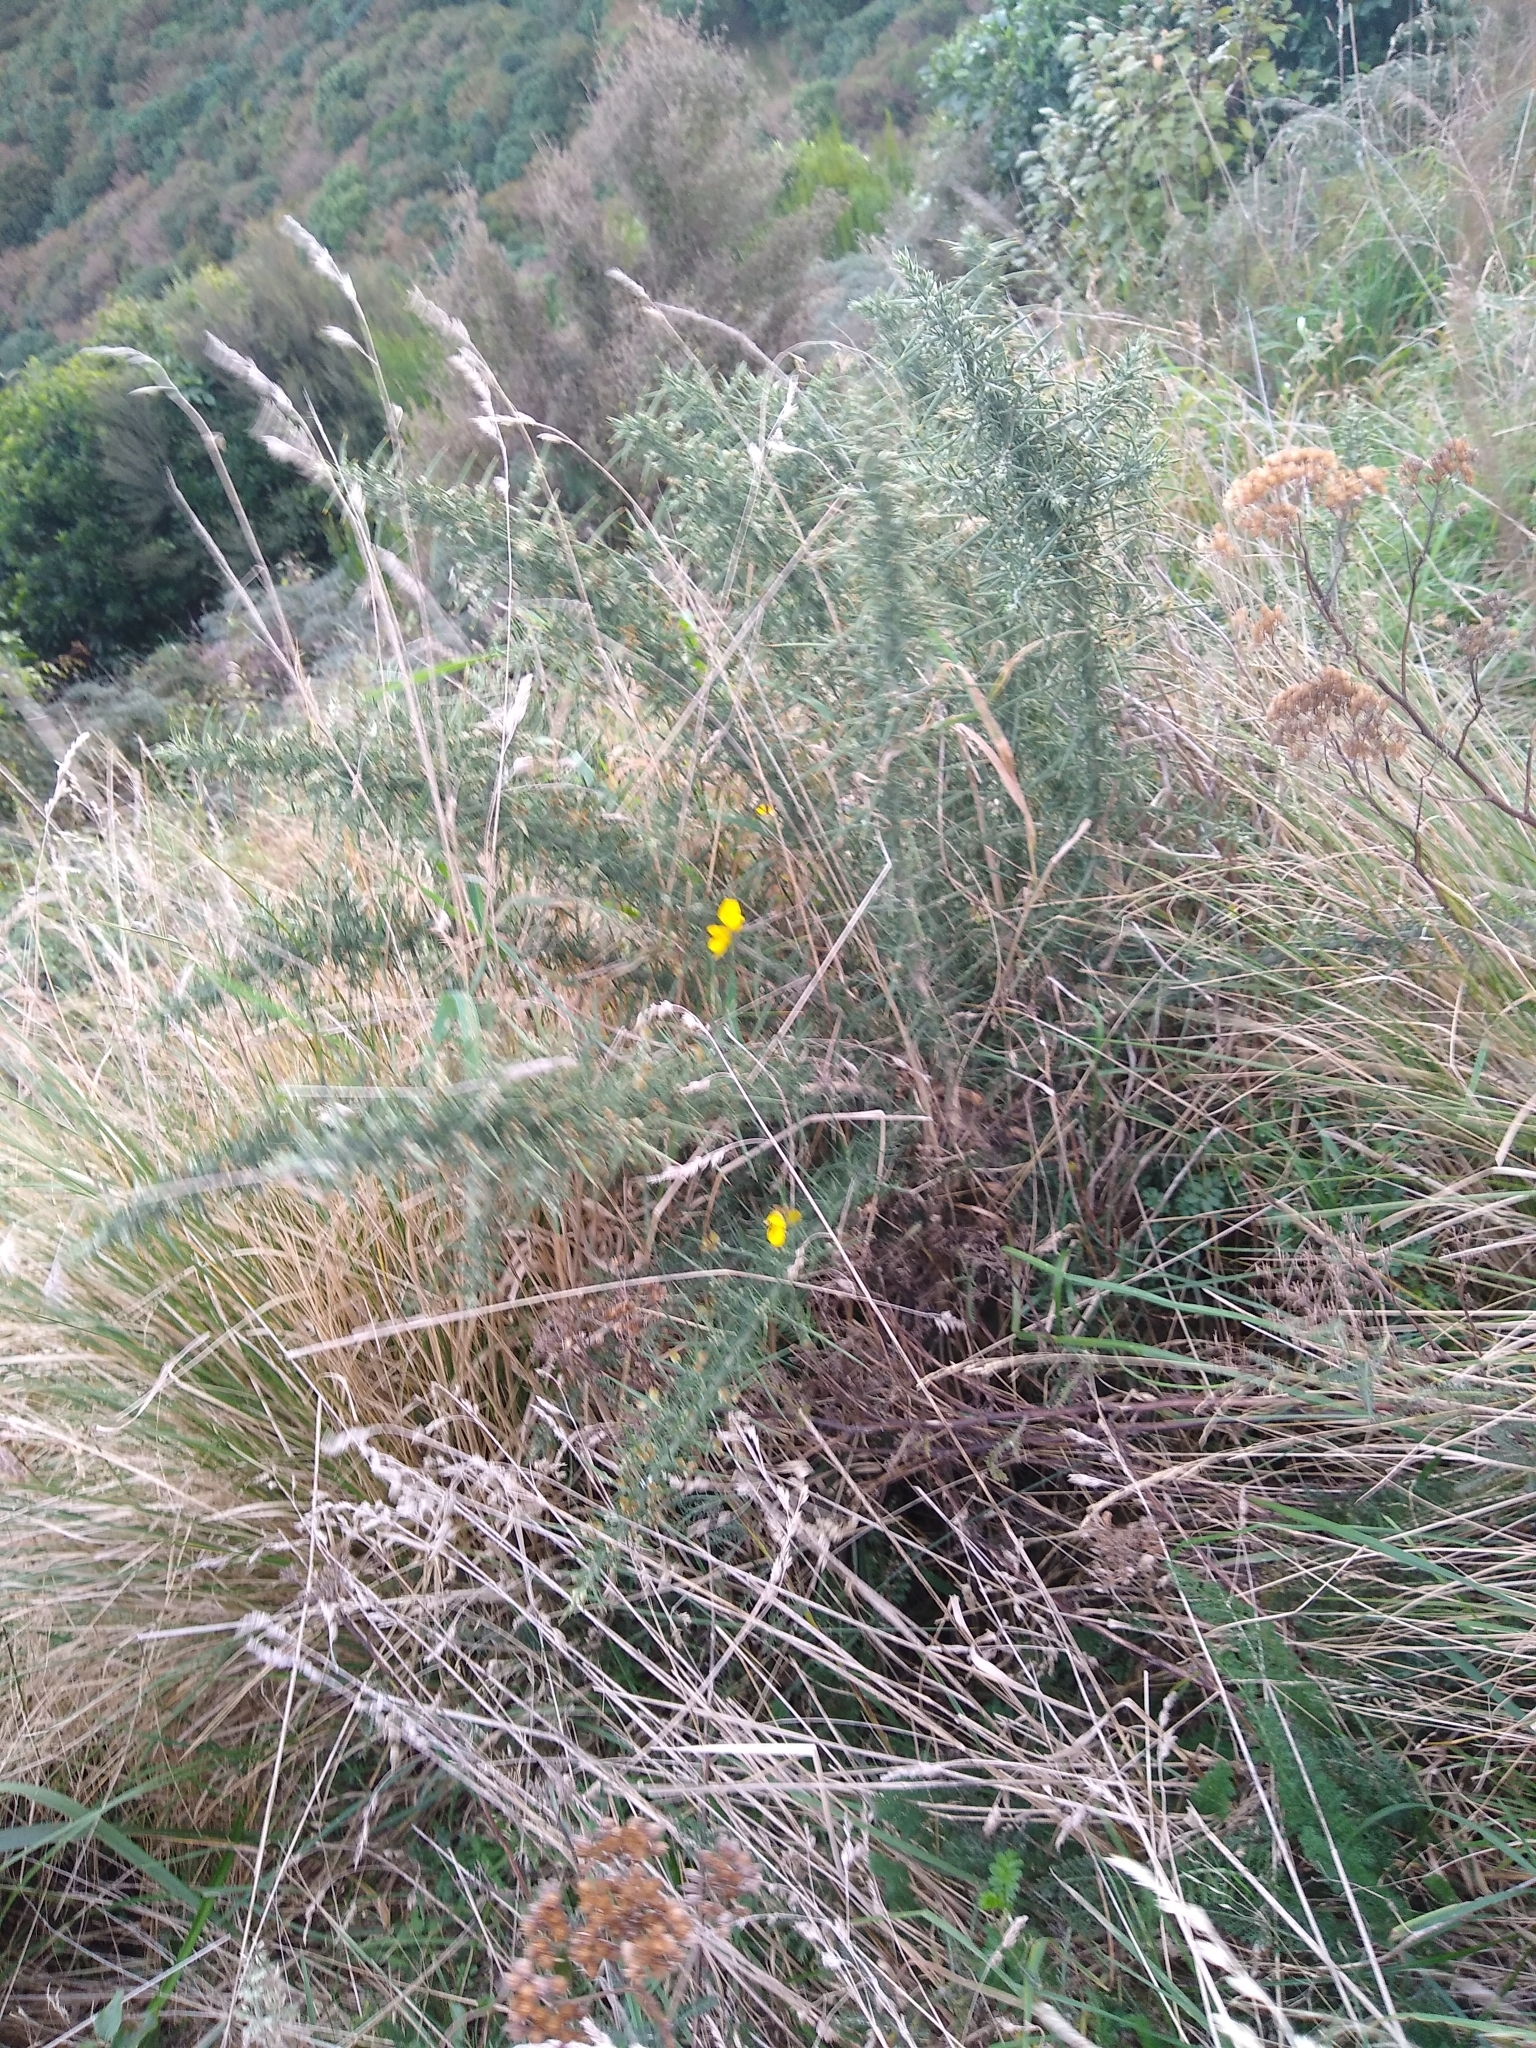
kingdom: Plantae
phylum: Tracheophyta
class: Magnoliopsida
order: Fabales
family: Fabaceae
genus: Ulex
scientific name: Ulex europaeus
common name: Common gorse
